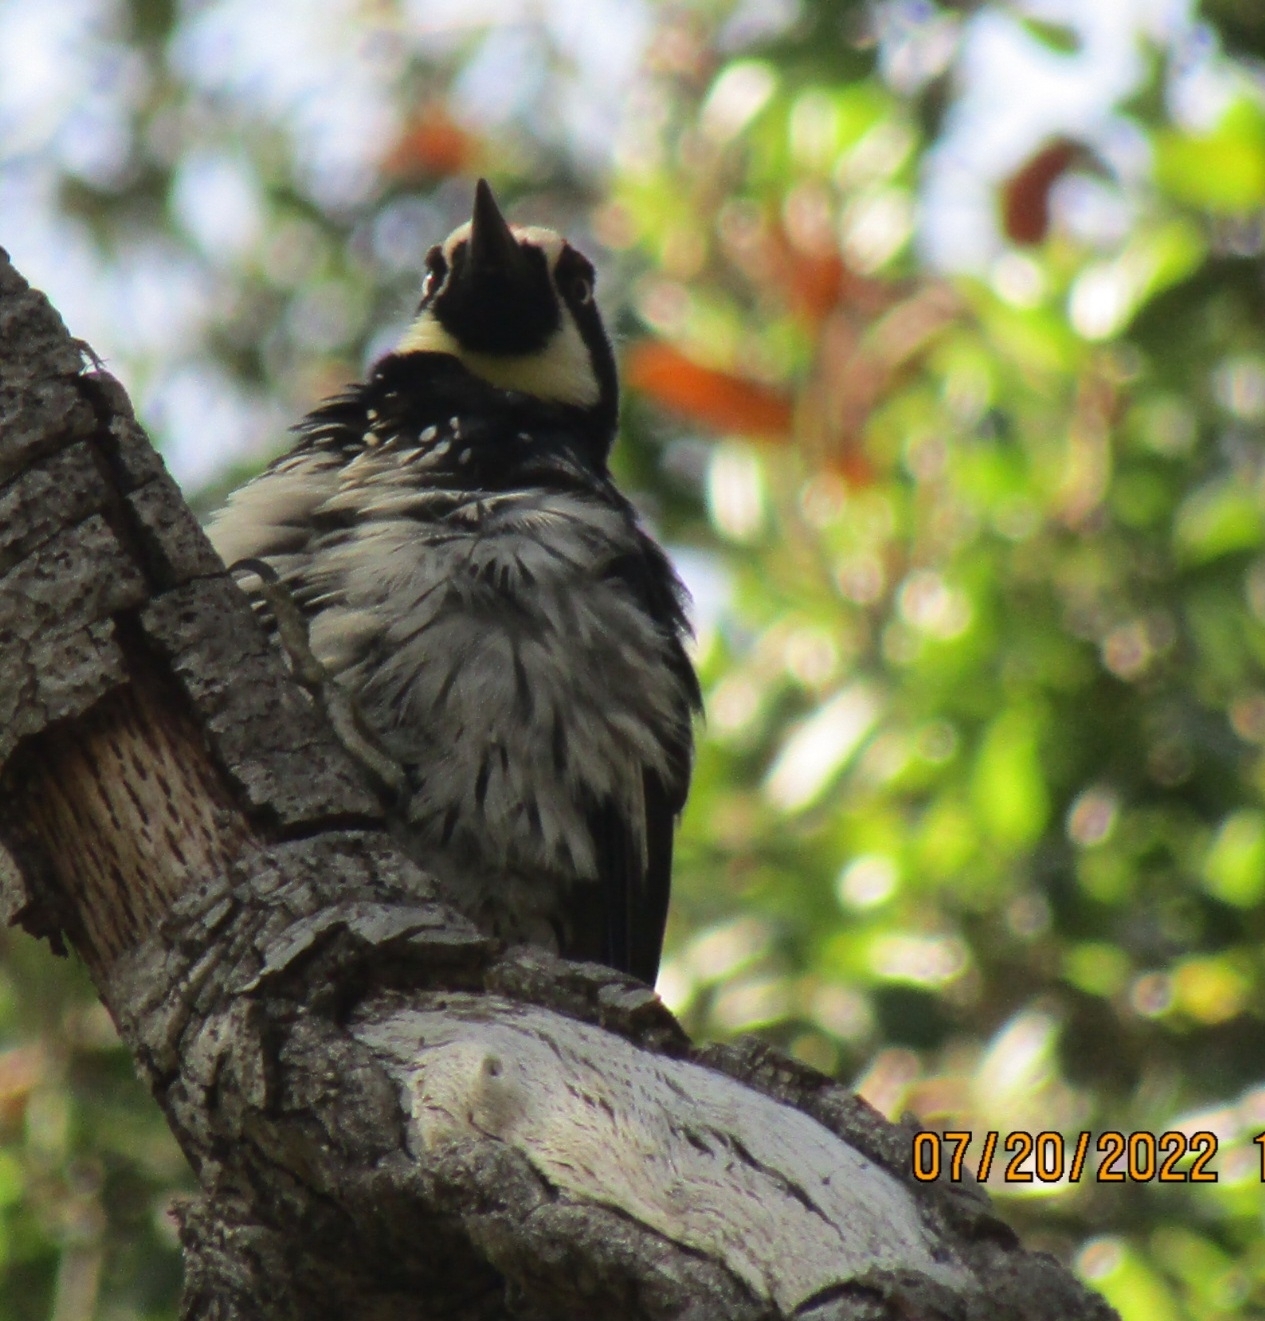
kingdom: Animalia
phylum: Chordata
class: Aves
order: Piciformes
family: Picidae
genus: Melanerpes
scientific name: Melanerpes formicivorus
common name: Acorn woodpecker
